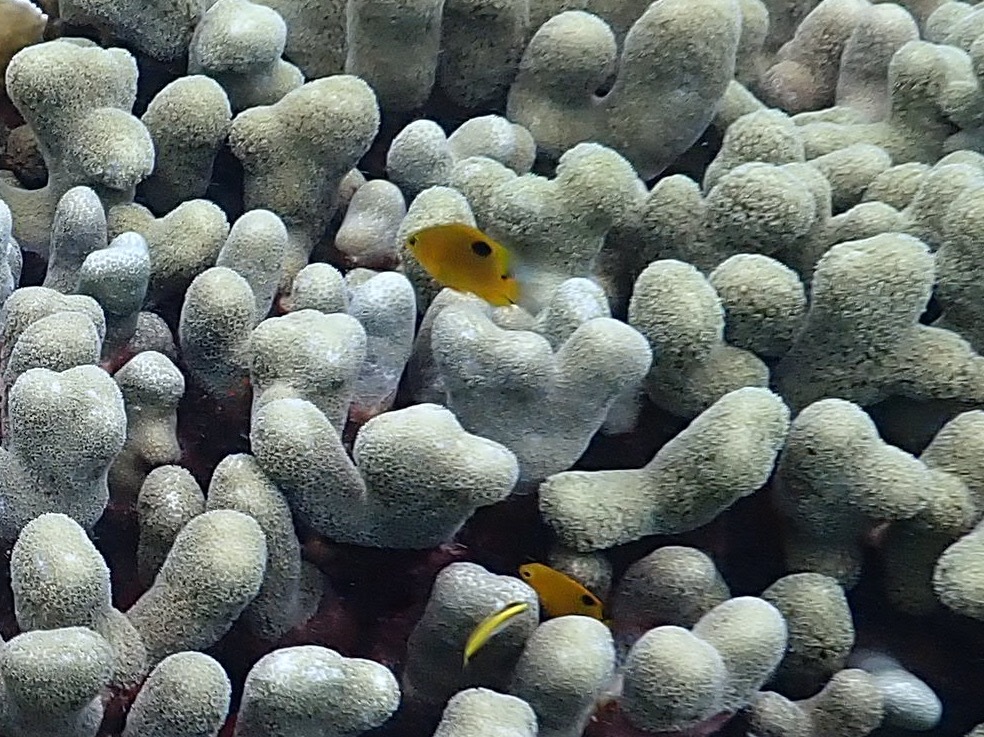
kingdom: Animalia
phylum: Chordata
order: Perciformes
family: Pomacentridae
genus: Stegastes
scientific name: Stegastes planifrons
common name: Threespot damselfish
